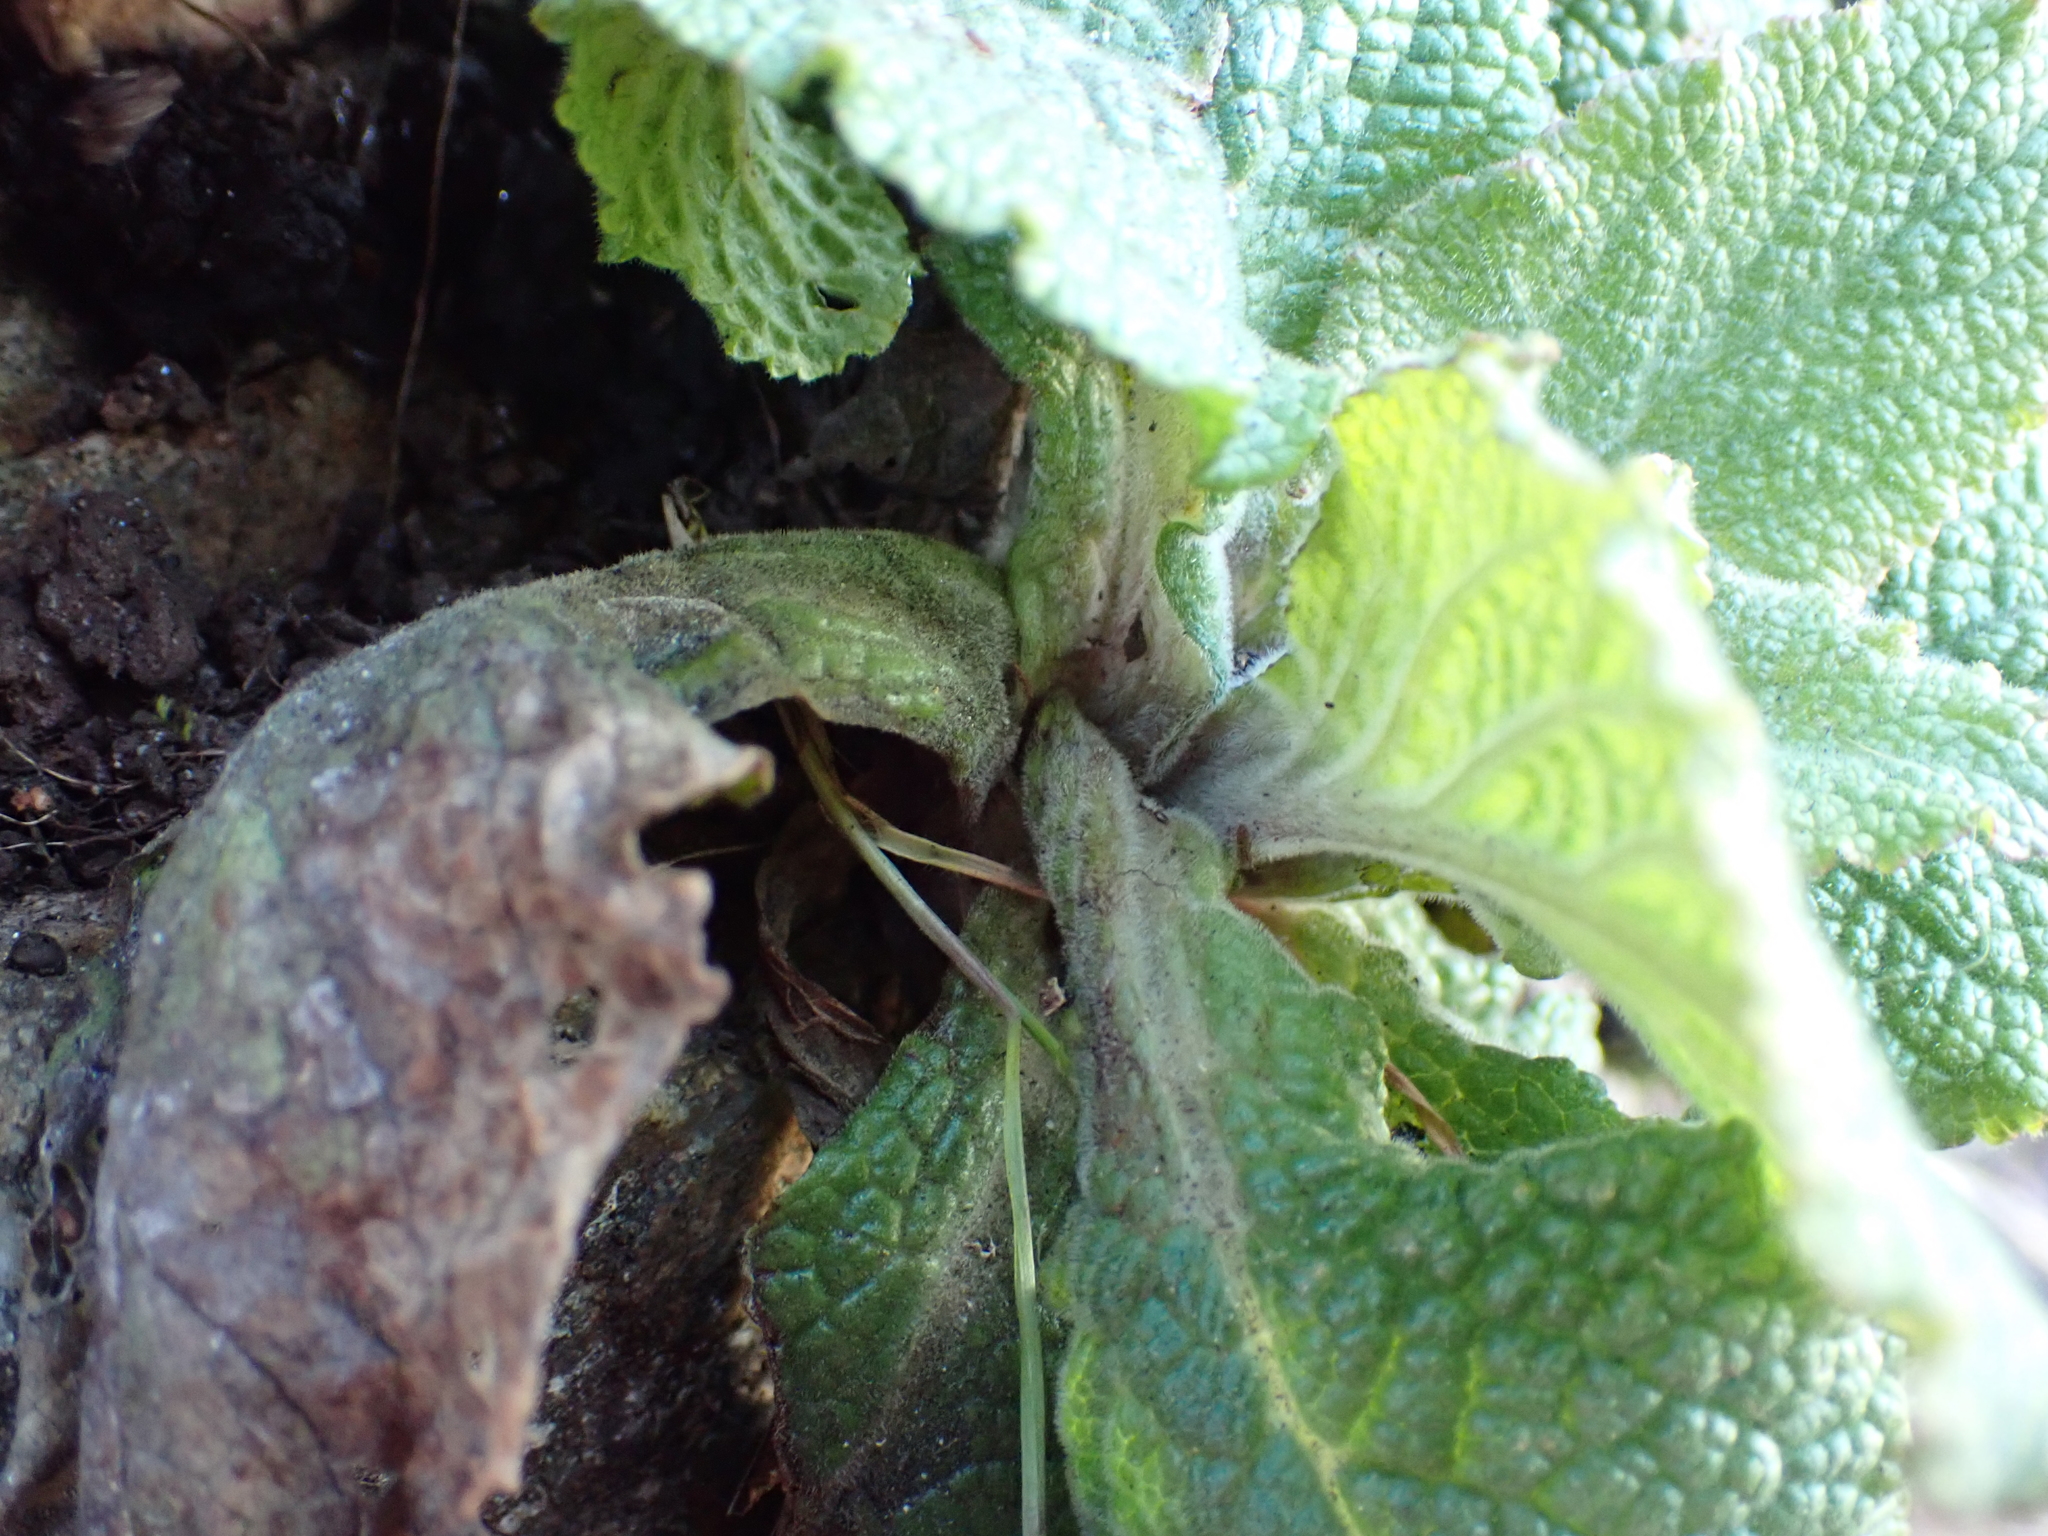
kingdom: Plantae
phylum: Tracheophyta
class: Magnoliopsida
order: Lamiales
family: Plantaginaceae
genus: Digitalis
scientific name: Digitalis purpurea
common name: Foxglove
